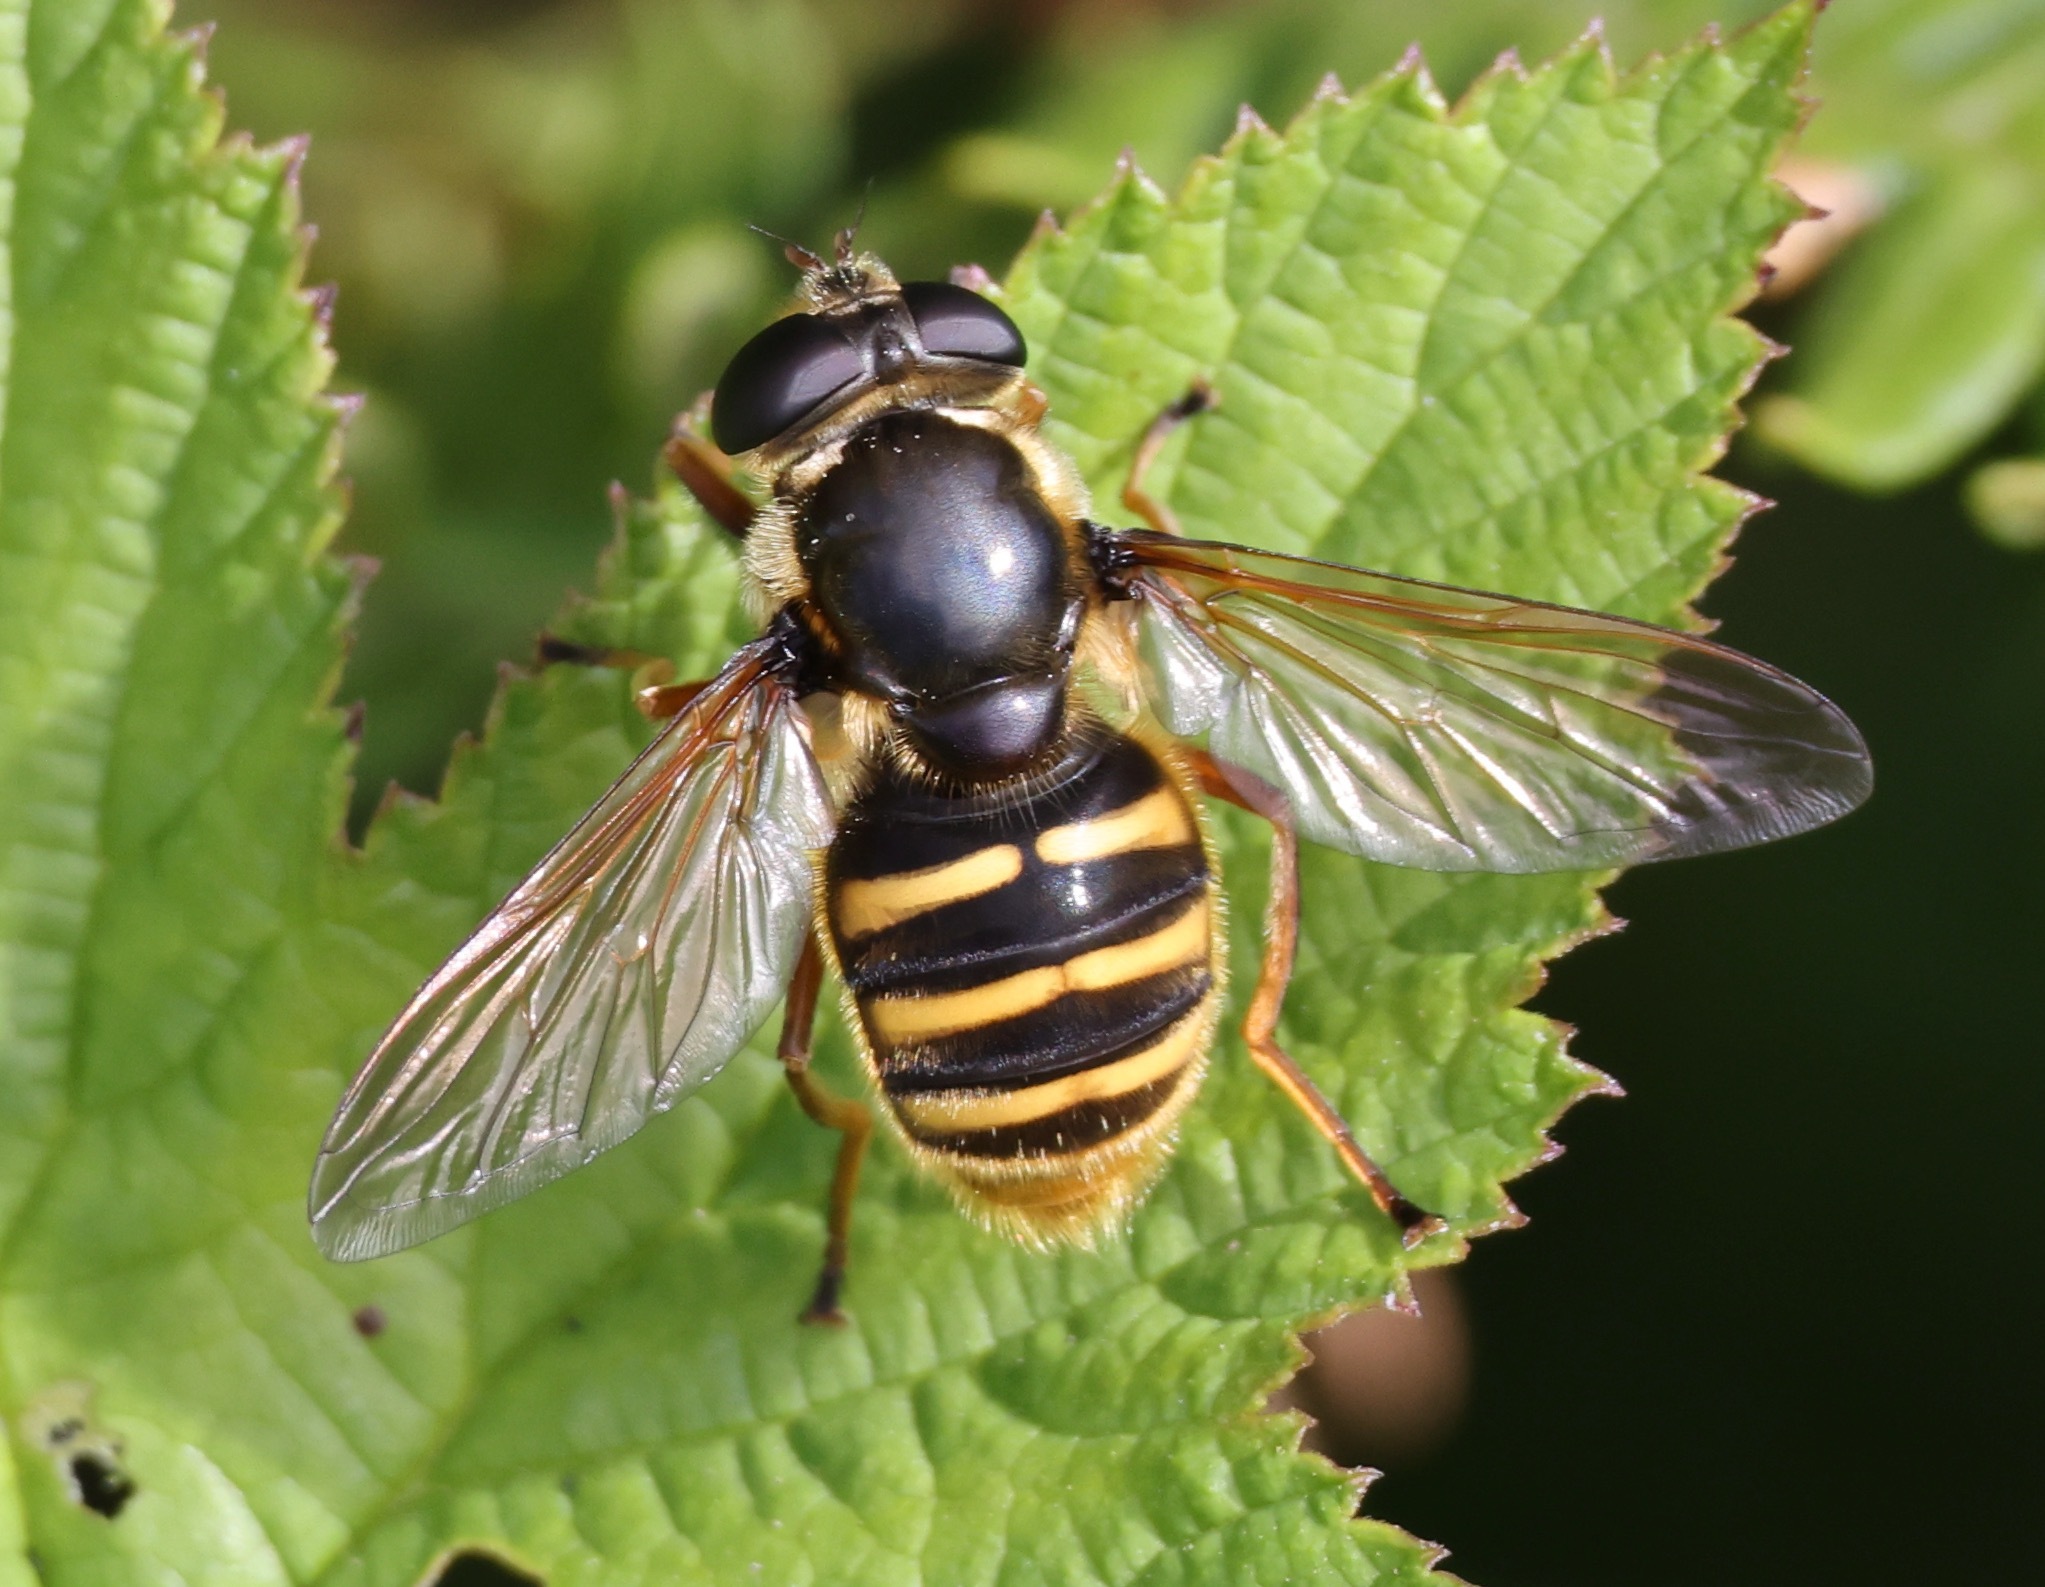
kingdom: Animalia
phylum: Arthropoda
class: Insecta
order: Diptera
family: Syrphidae
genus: Sericomyia
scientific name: Sericomyia silentis
